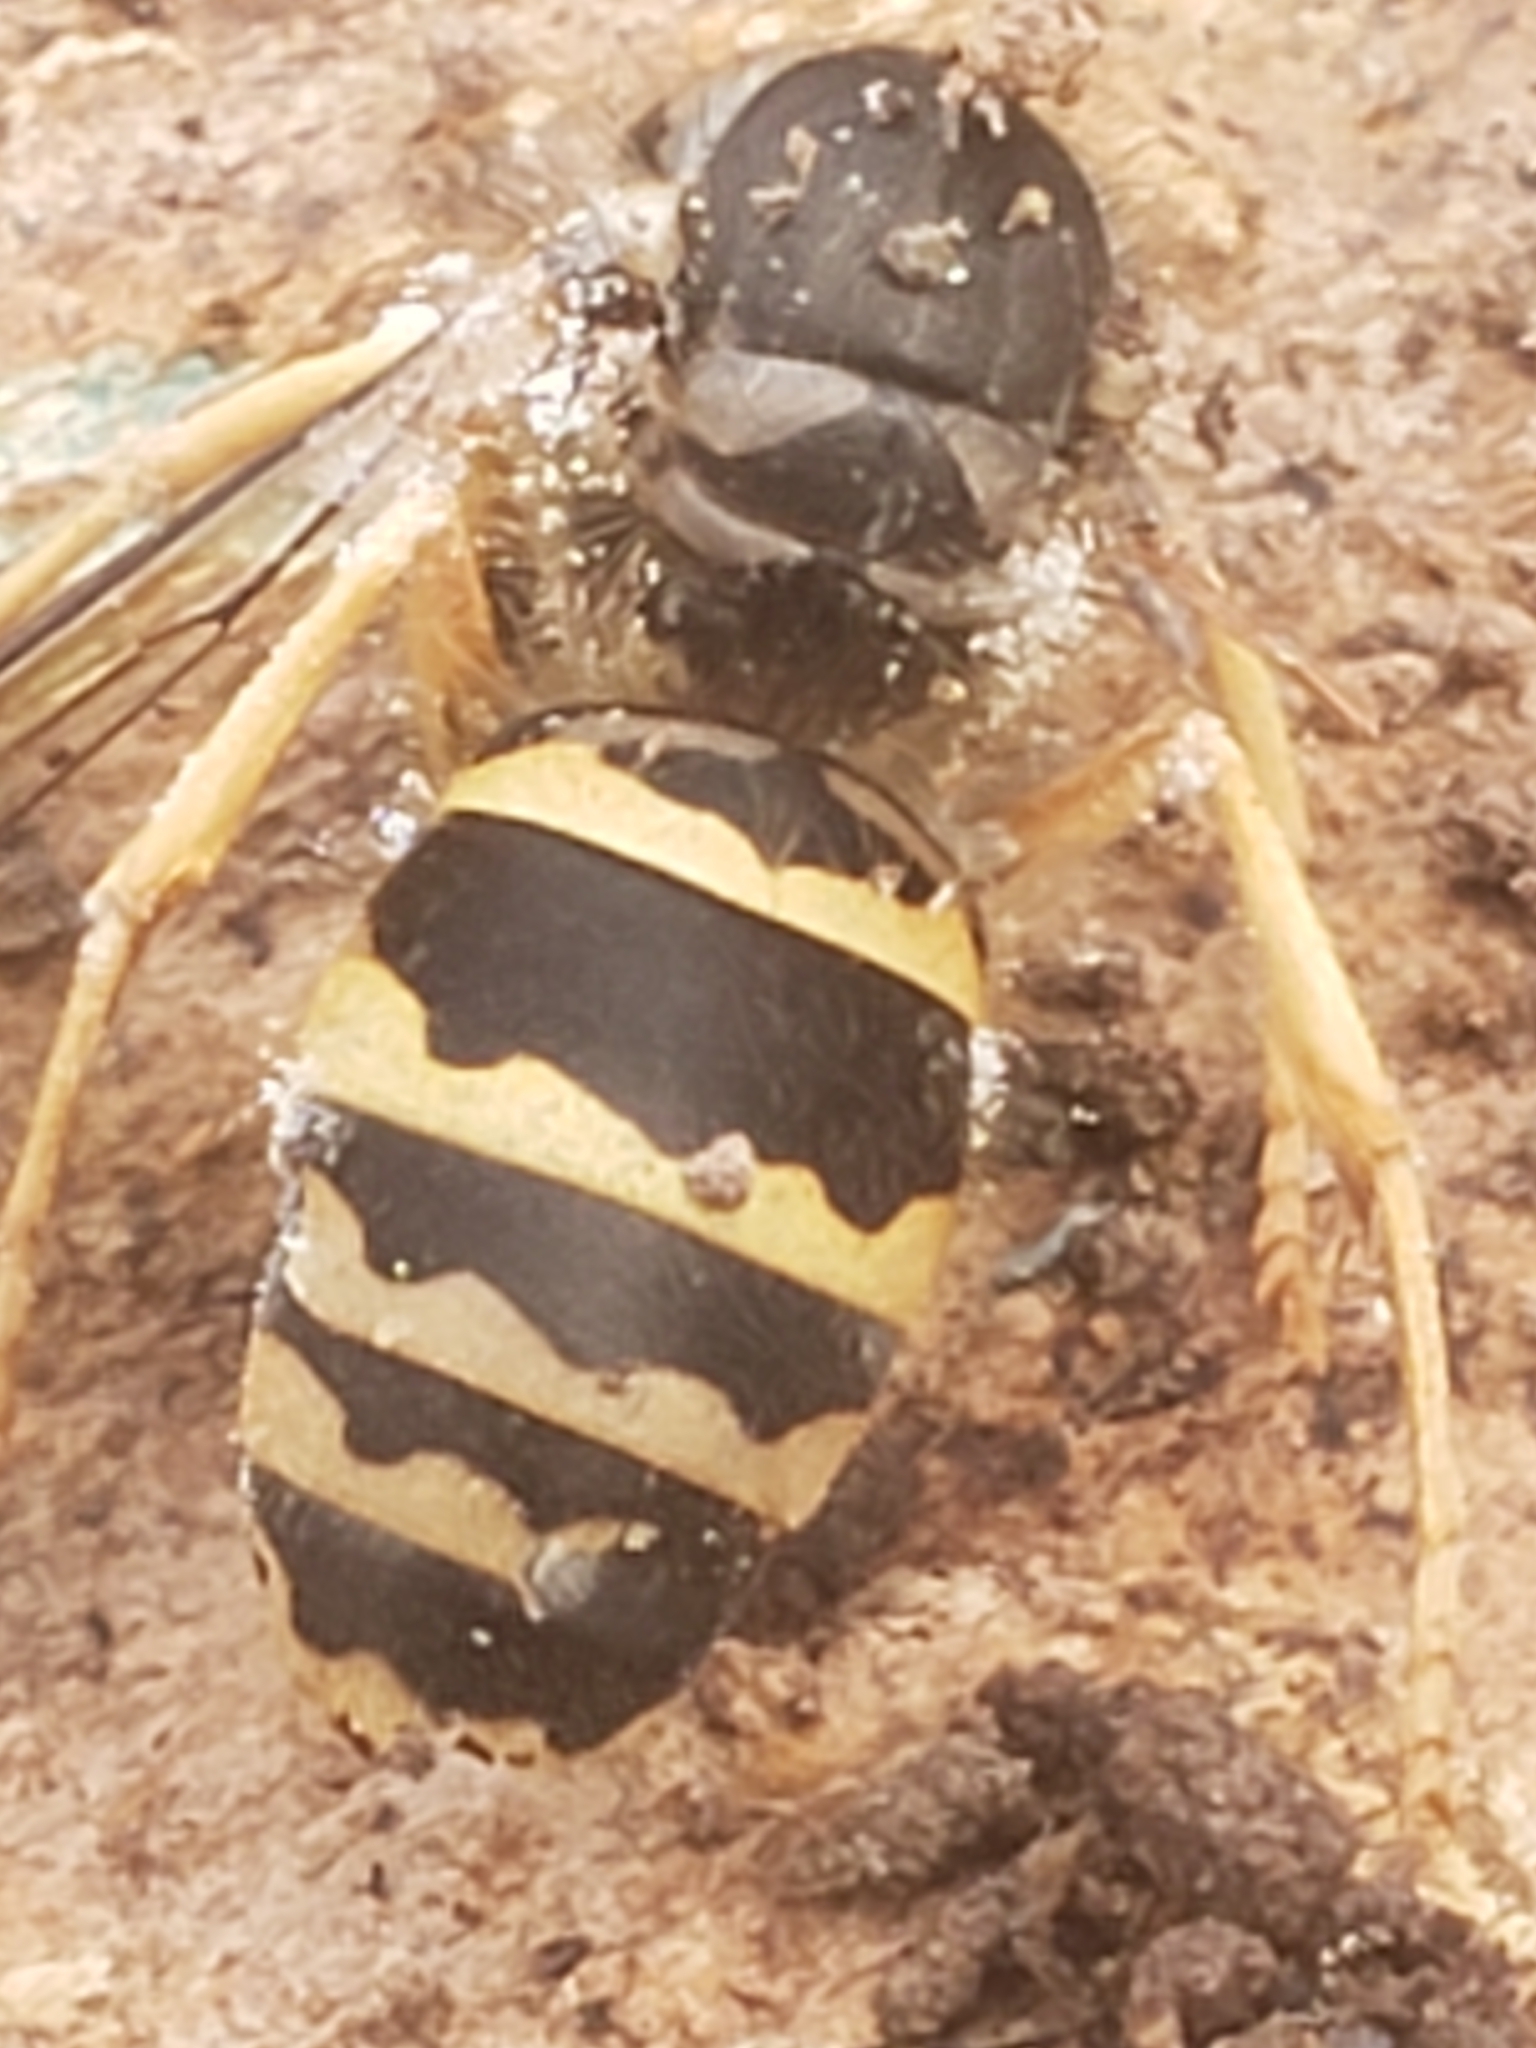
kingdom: Animalia
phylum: Arthropoda
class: Insecta
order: Hymenoptera
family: Vespidae
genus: Vespula
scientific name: Vespula maculifrons
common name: Eastern yellowjacket
